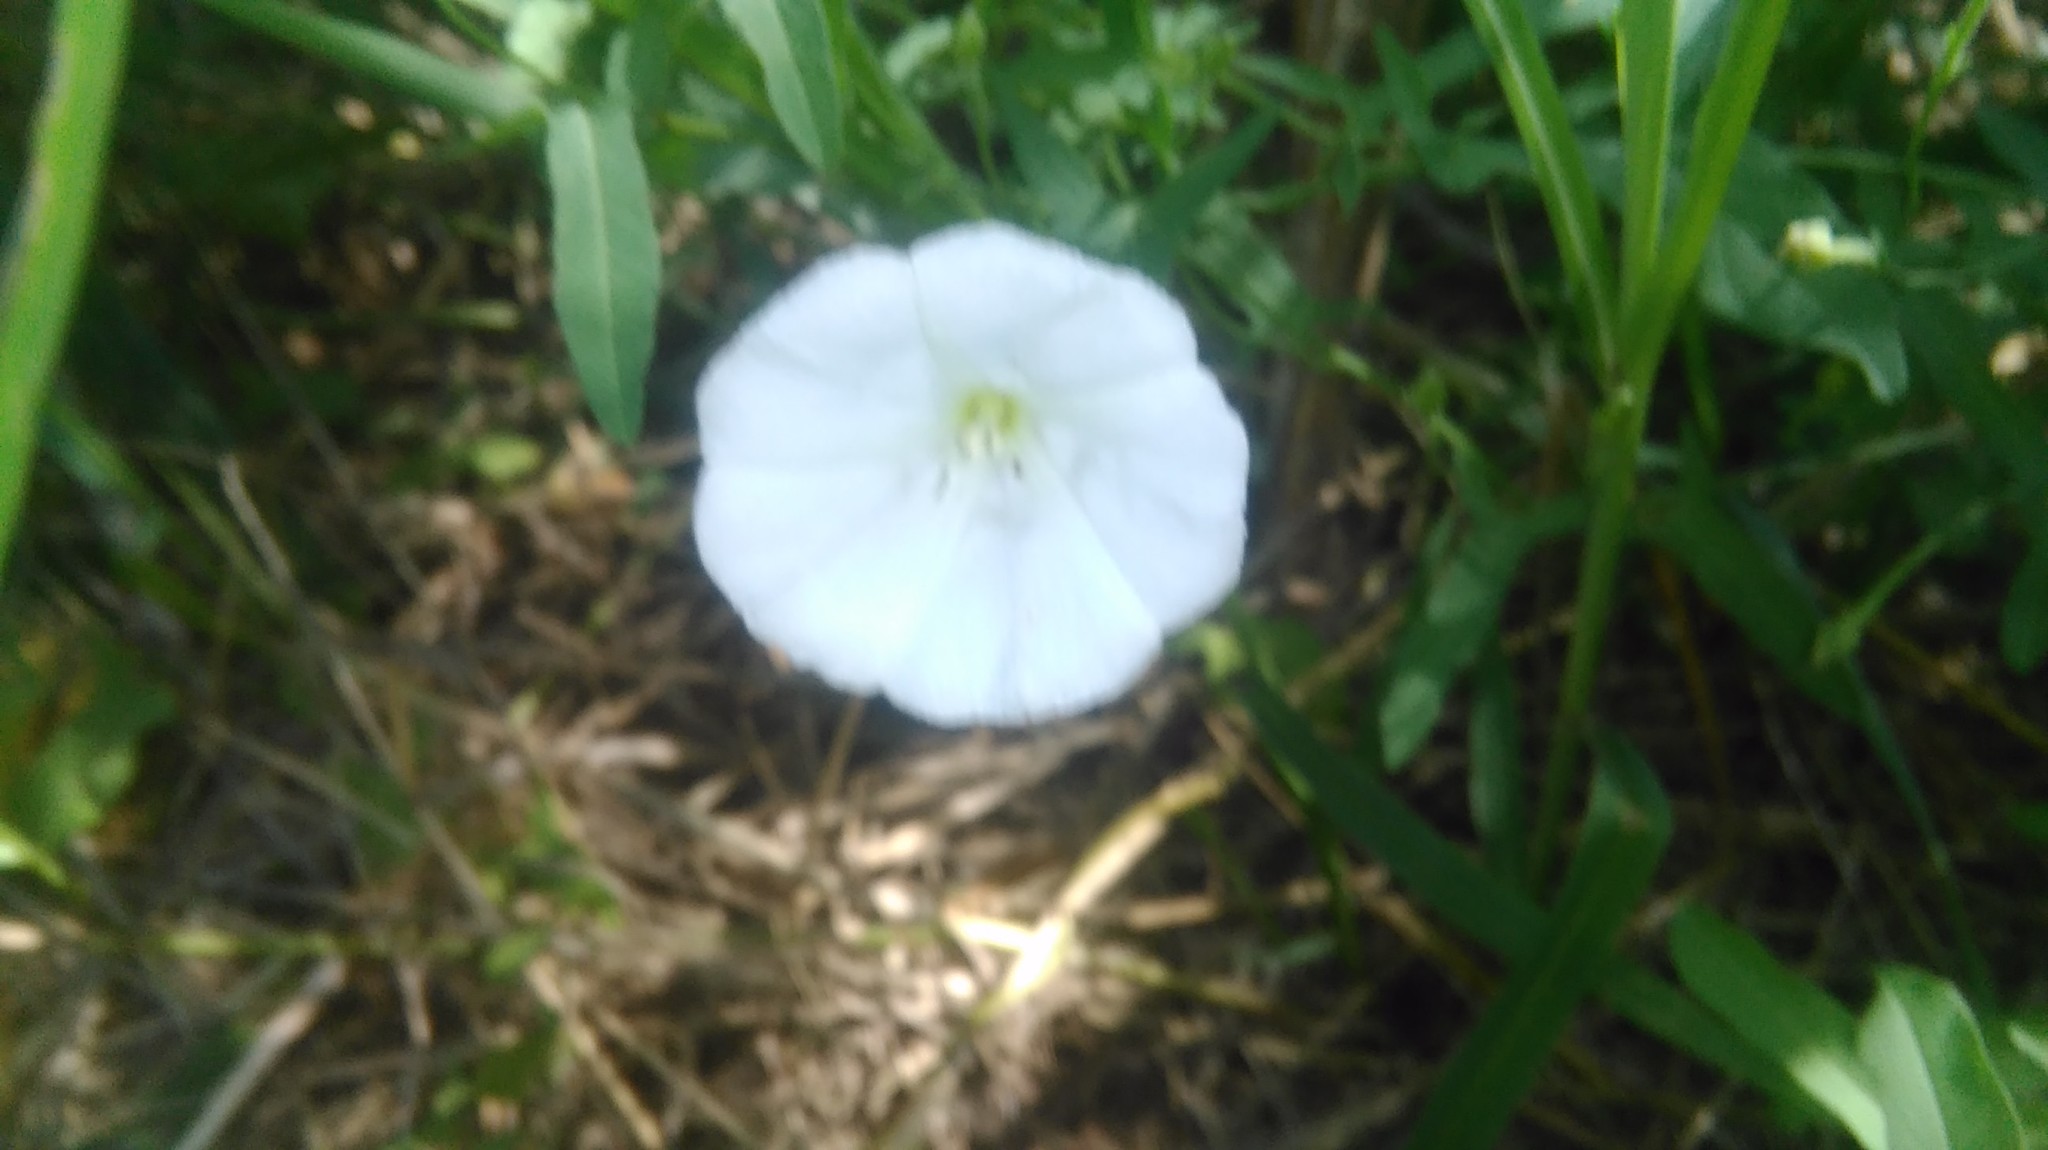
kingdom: Plantae
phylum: Tracheophyta
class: Magnoliopsida
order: Solanales
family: Convolvulaceae
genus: Convolvulus
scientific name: Convolvulus arvensis
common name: Field bindweed
